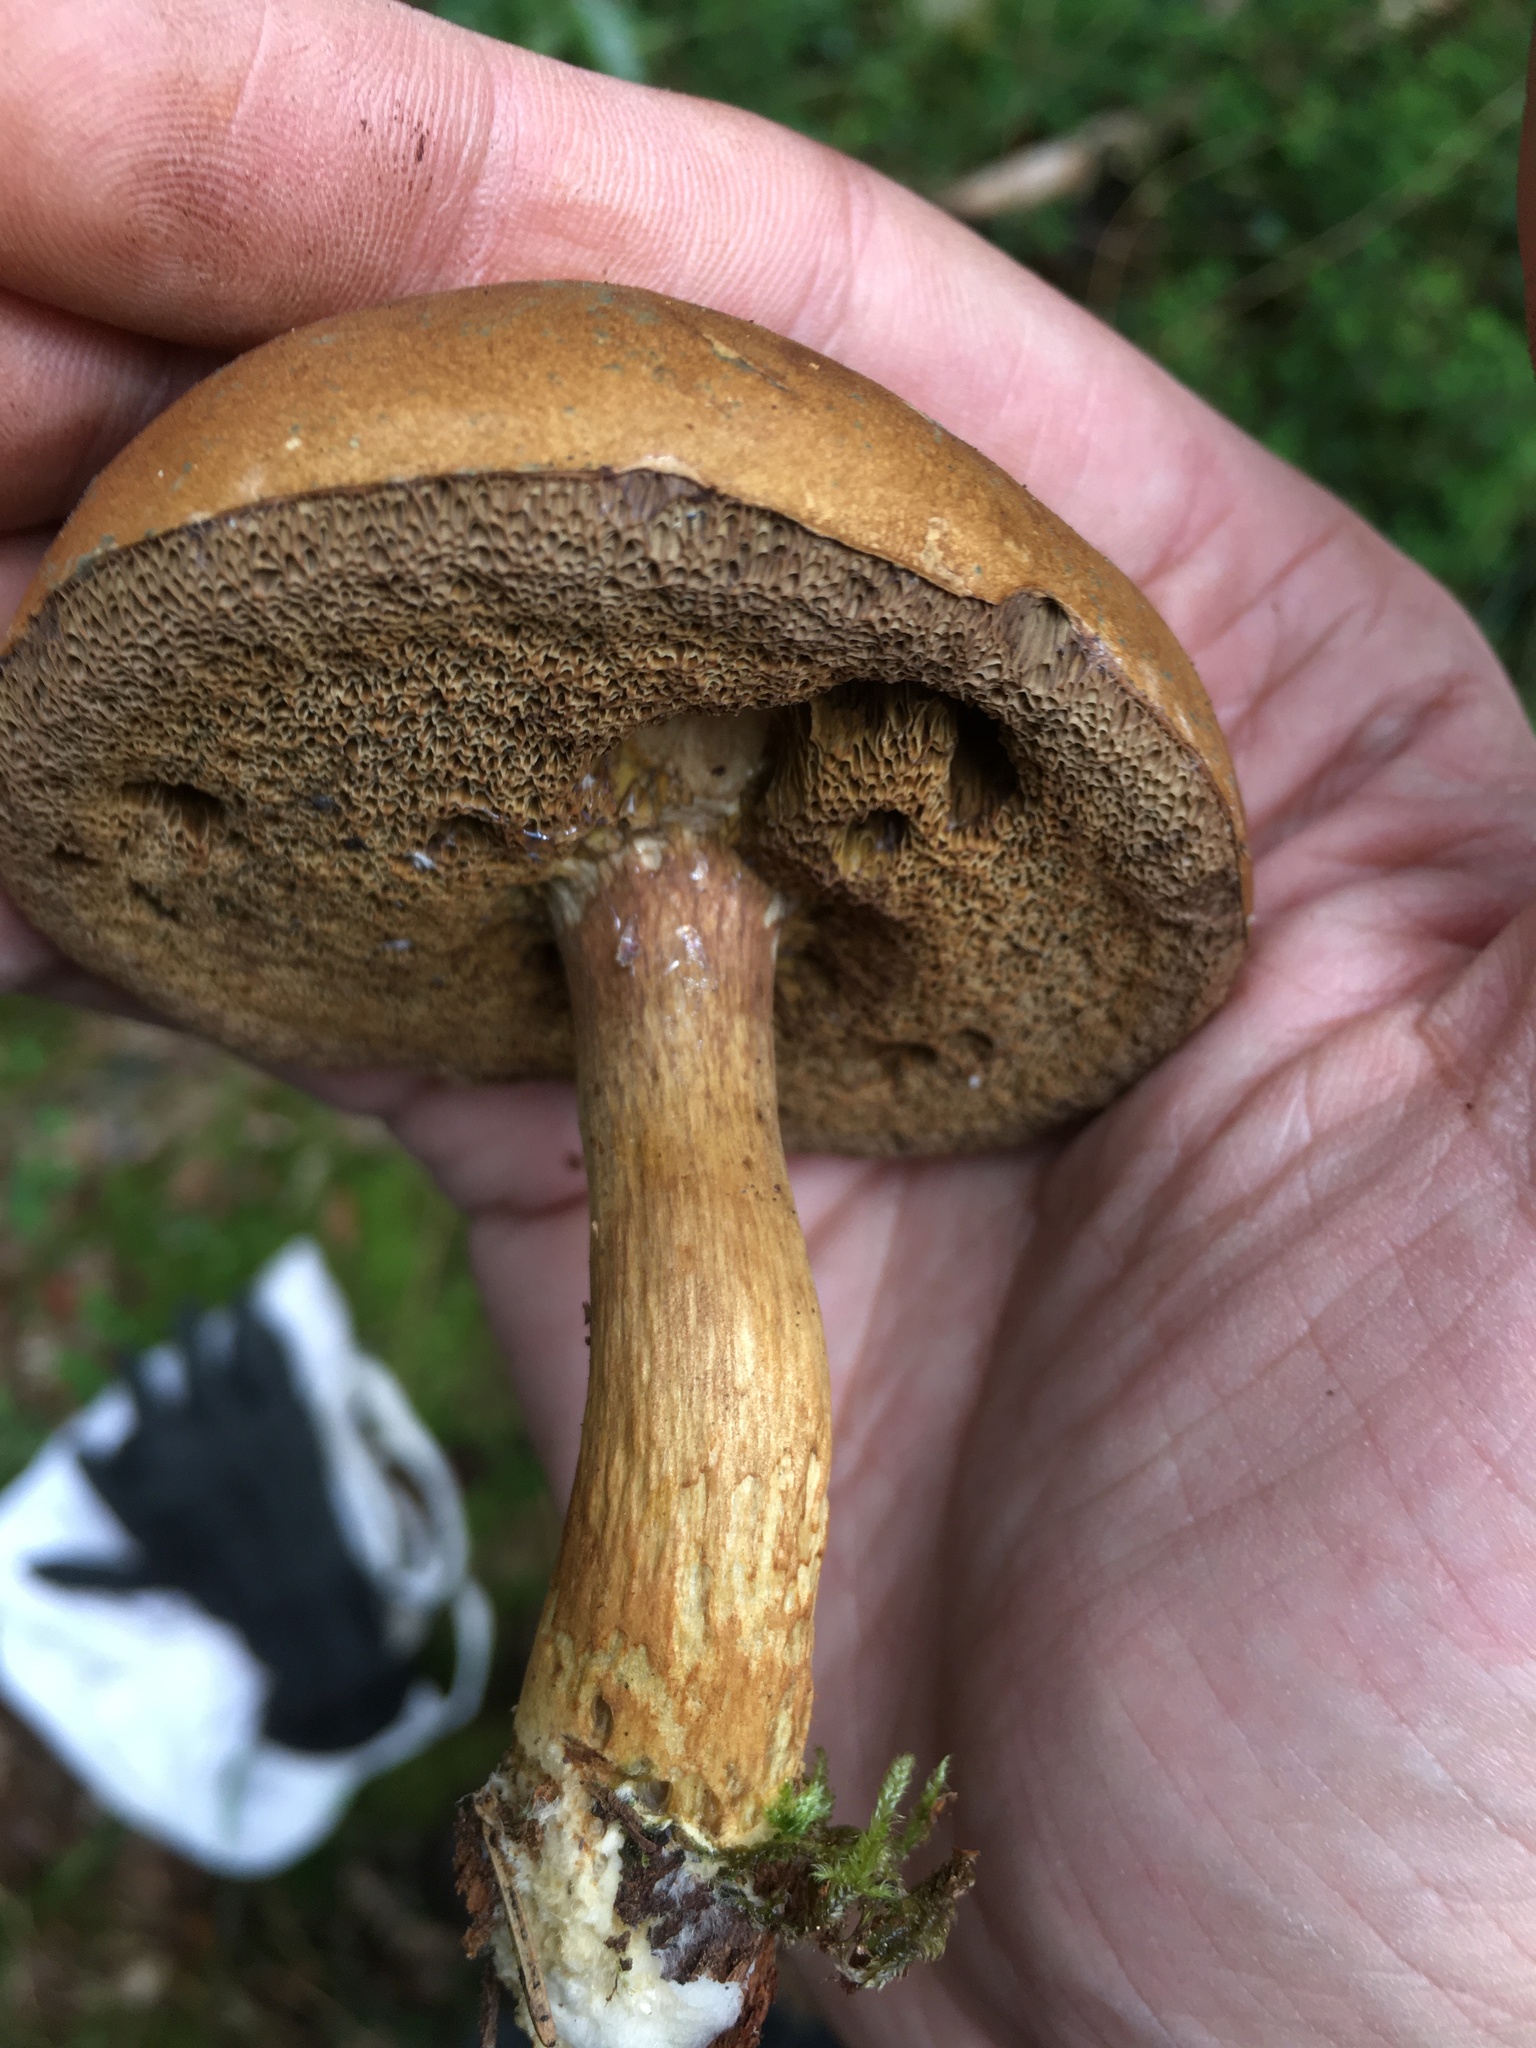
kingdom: Fungi
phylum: Basidiomycota
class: Agaricomycetes
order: Boletales
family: Boletaceae
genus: Imleria
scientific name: Imleria badia
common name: Bay bolete
